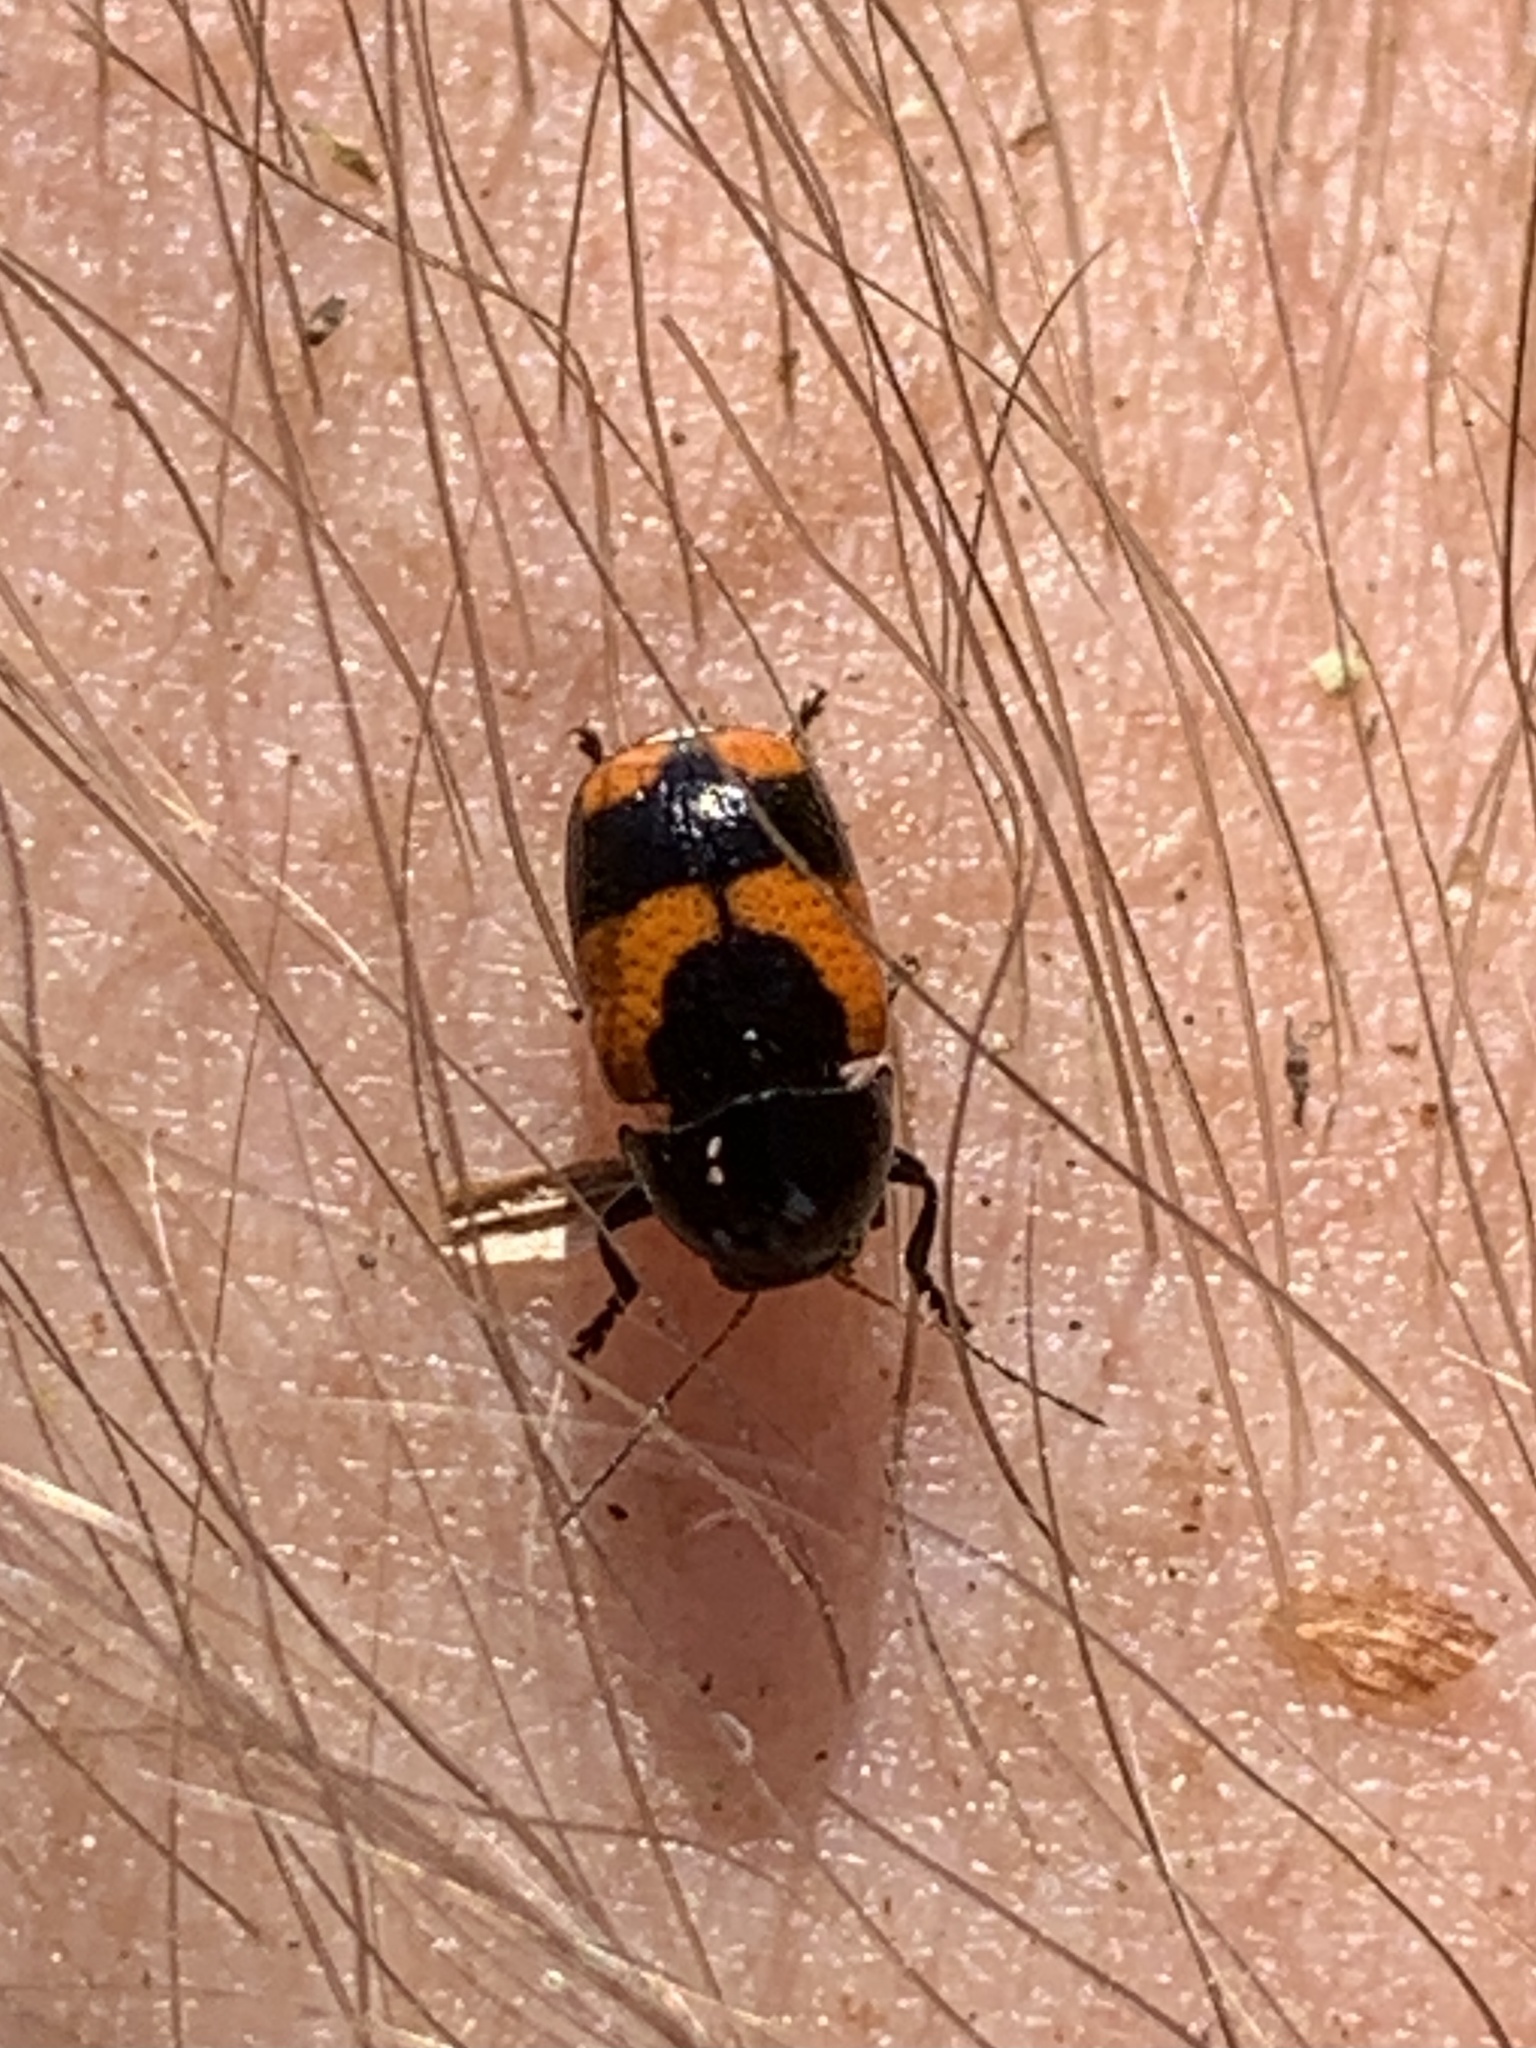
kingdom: Animalia
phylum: Arthropoda
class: Insecta
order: Coleoptera
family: Chrysomelidae
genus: Cryptocephalus
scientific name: Cryptocephalus binominis
